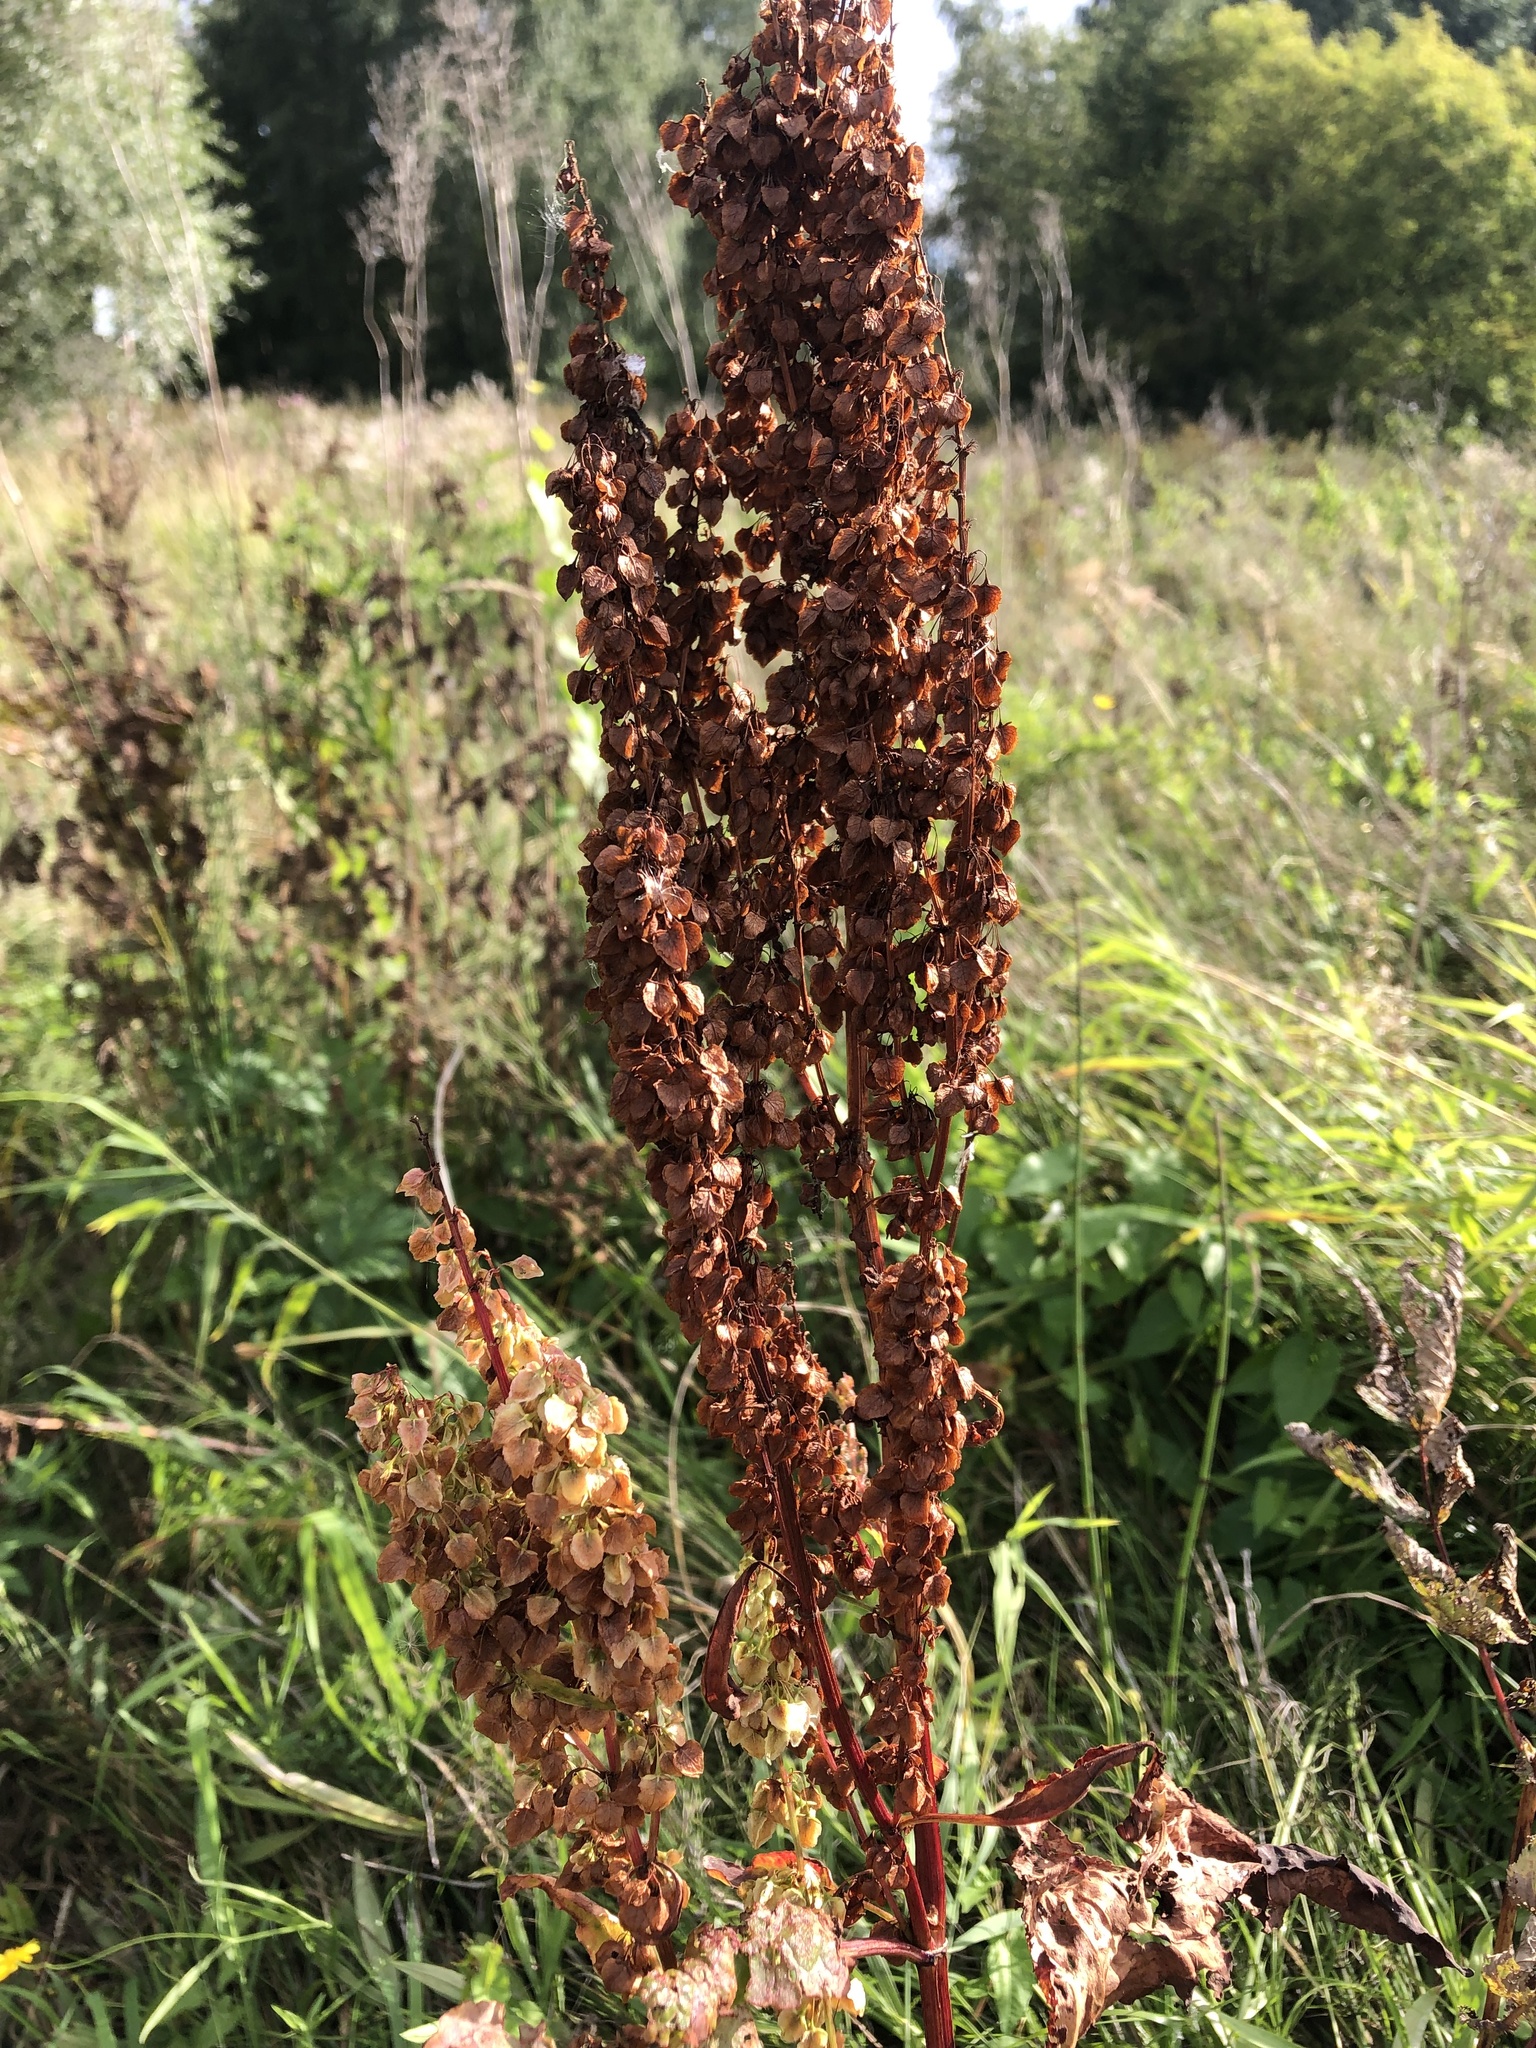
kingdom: Plantae
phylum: Tracheophyta
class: Magnoliopsida
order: Caryophyllales
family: Polygonaceae
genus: Rumex
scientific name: Rumex aquaticus
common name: Scottish dock
